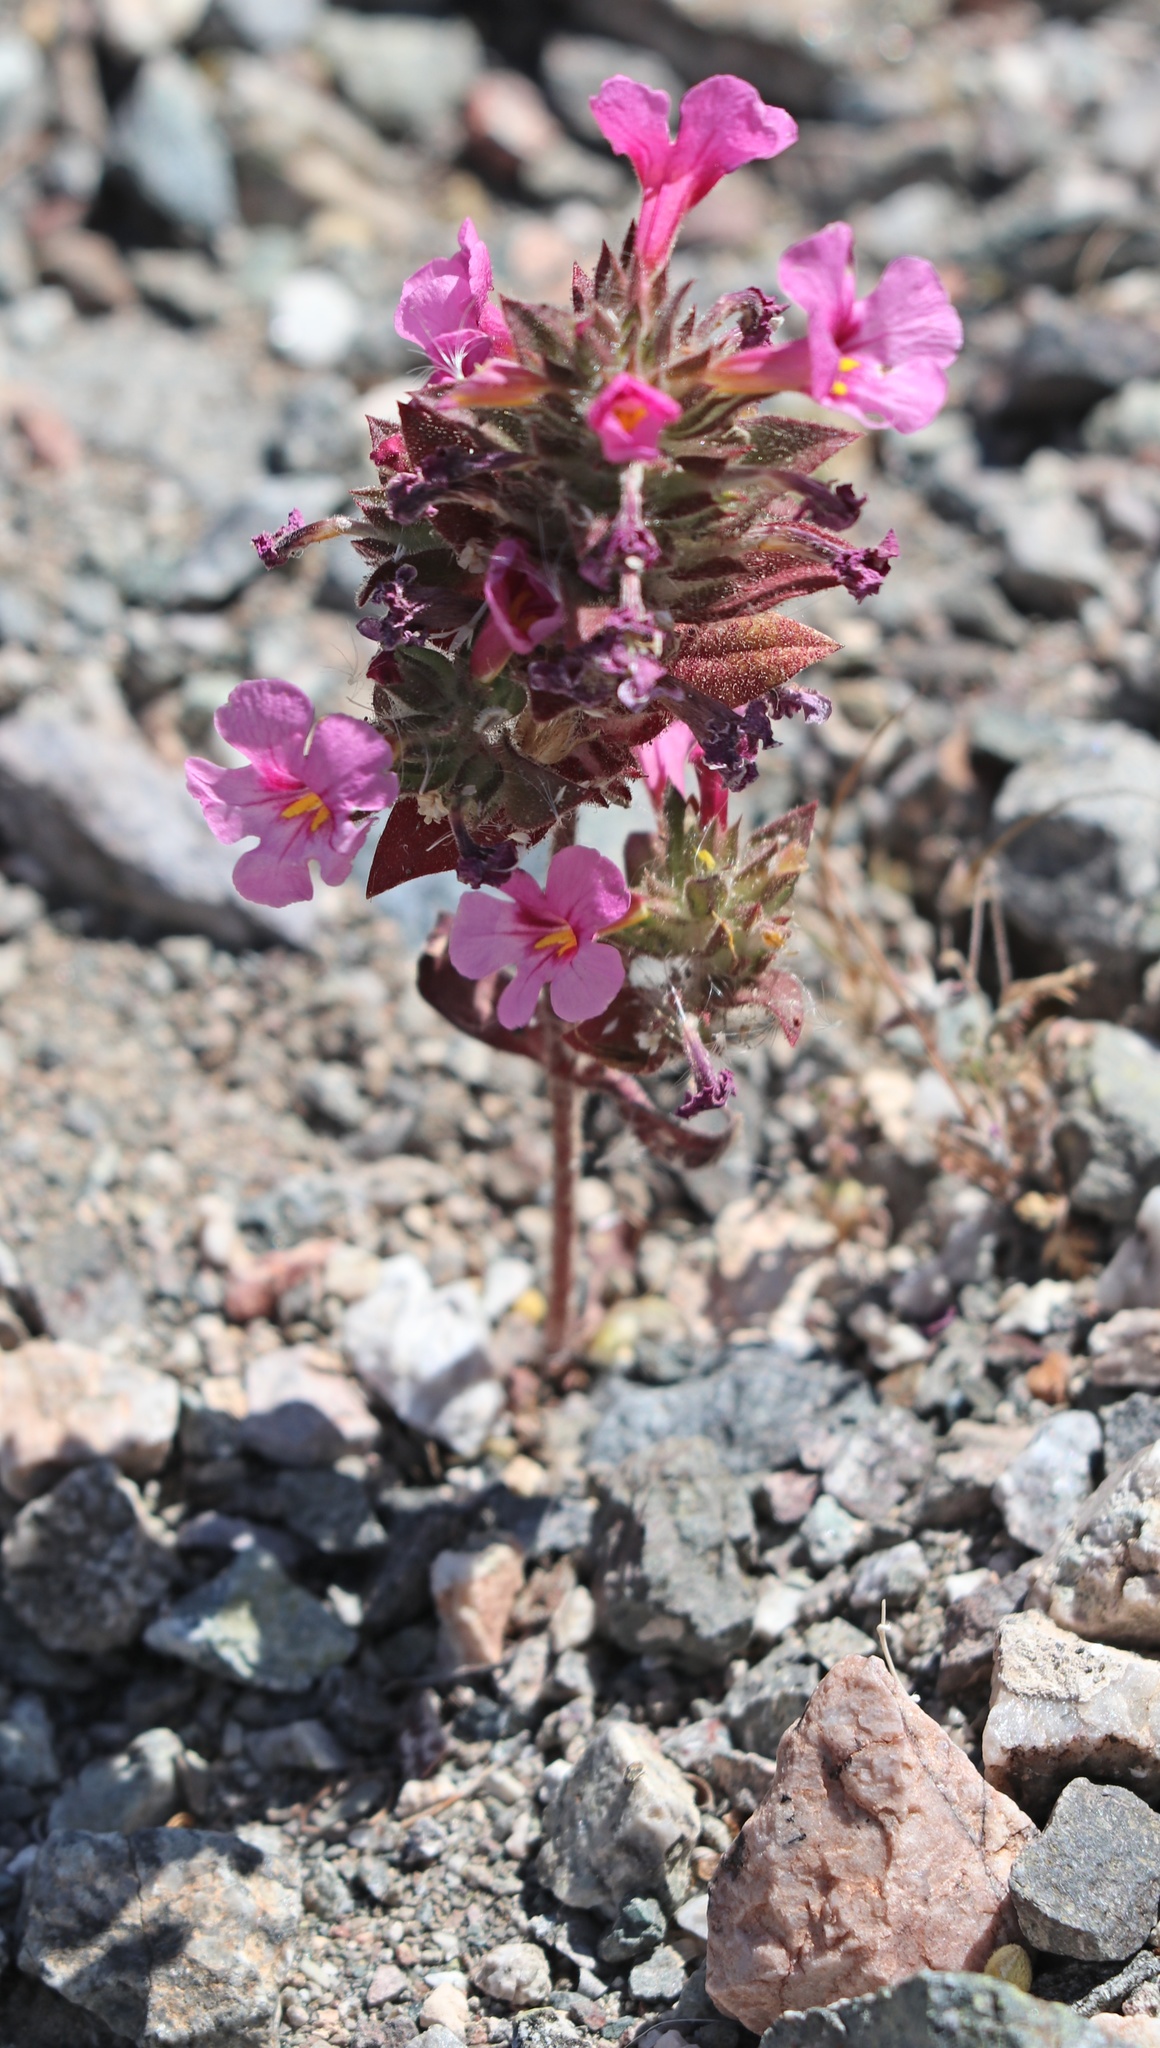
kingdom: Plantae
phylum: Tracheophyta
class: Magnoliopsida
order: Lamiales
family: Phrymaceae
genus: Diplacus
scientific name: Diplacus bigelovii
